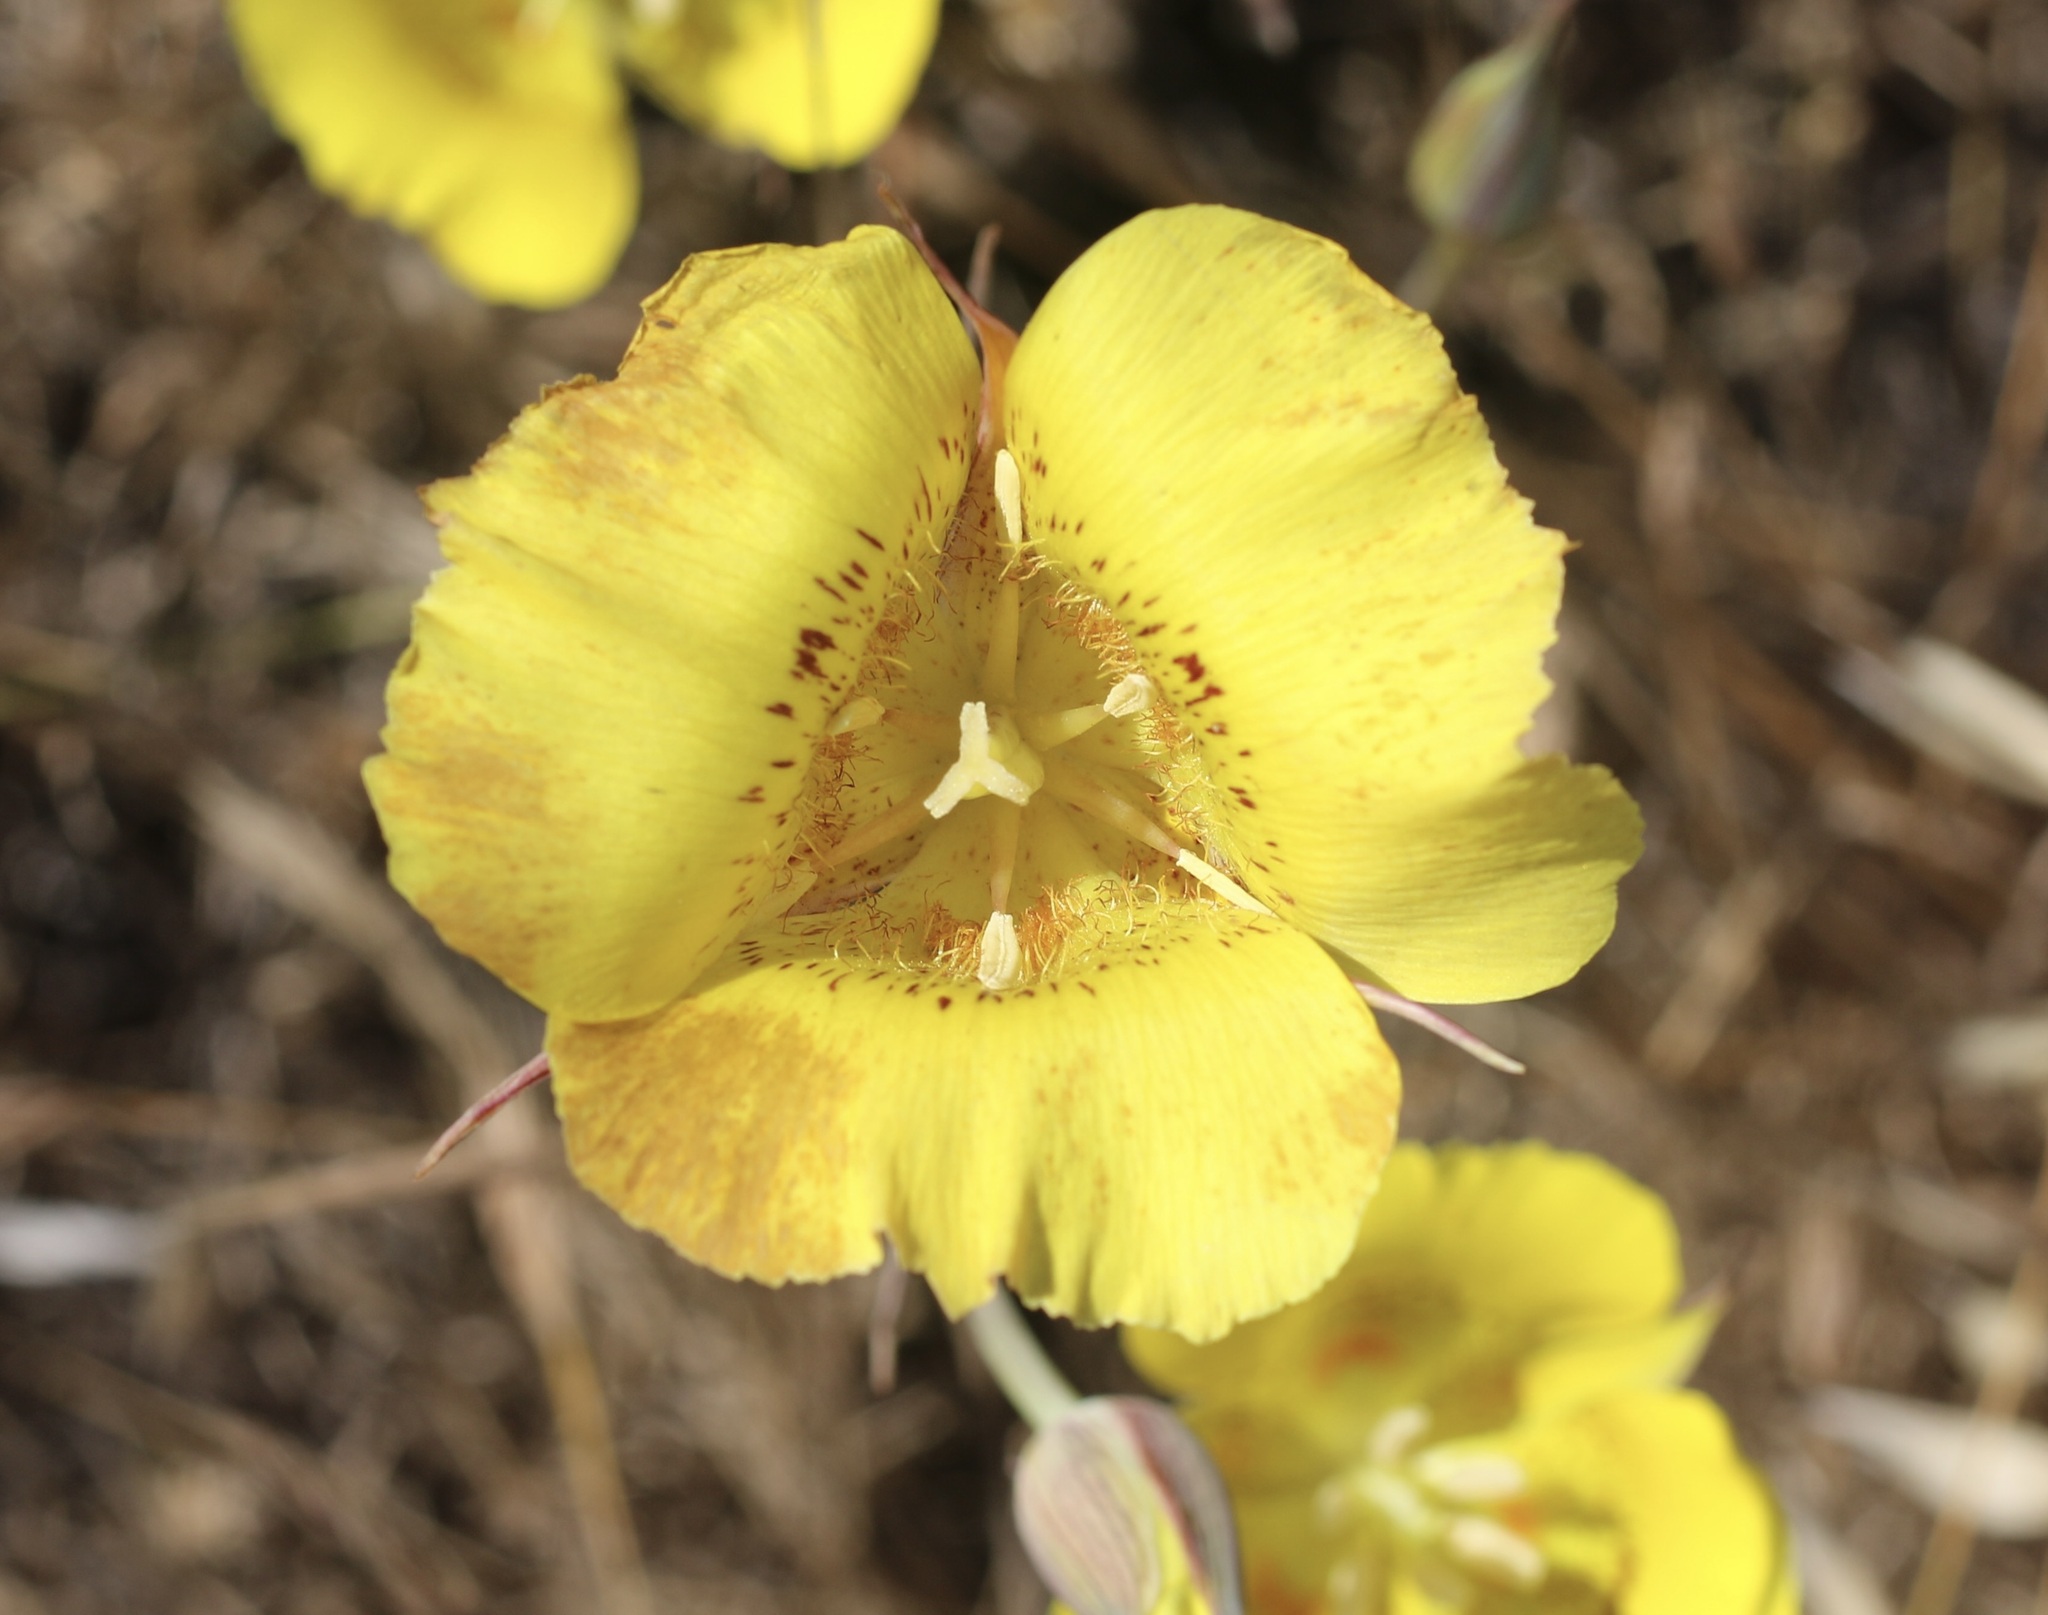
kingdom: Plantae
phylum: Tracheophyta
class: Liliopsida
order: Liliales
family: Liliaceae
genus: Calochortus
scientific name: Calochortus luteus
